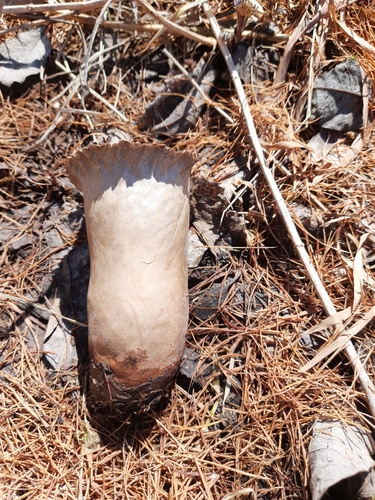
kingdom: Fungi
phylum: Basidiomycota
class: Agaricomycetes
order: Agaricales
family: Lycoperdaceae
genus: Lycoperdon
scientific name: Lycoperdon excipuliforme
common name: Pestle puffball
